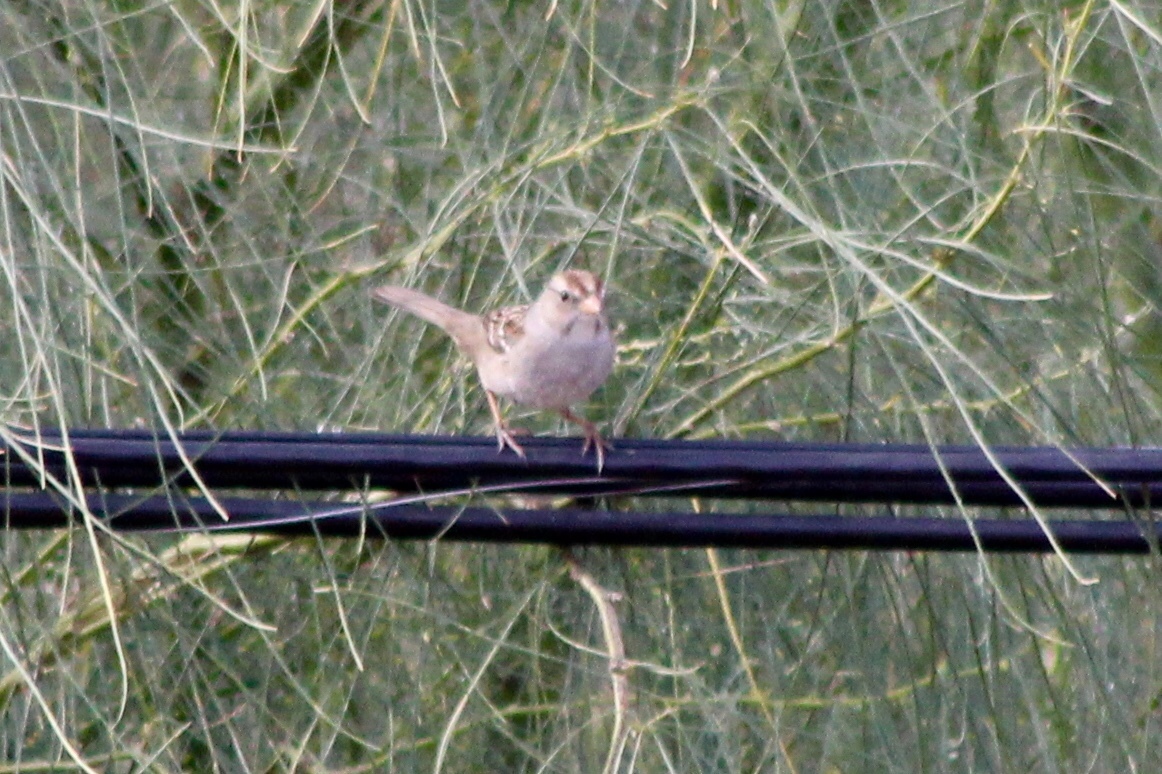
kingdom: Animalia
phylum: Chordata
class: Aves
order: Passeriformes
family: Passerellidae
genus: Zonotrichia
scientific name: Zonotrichia leucophrys
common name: White-crowned sparrow
